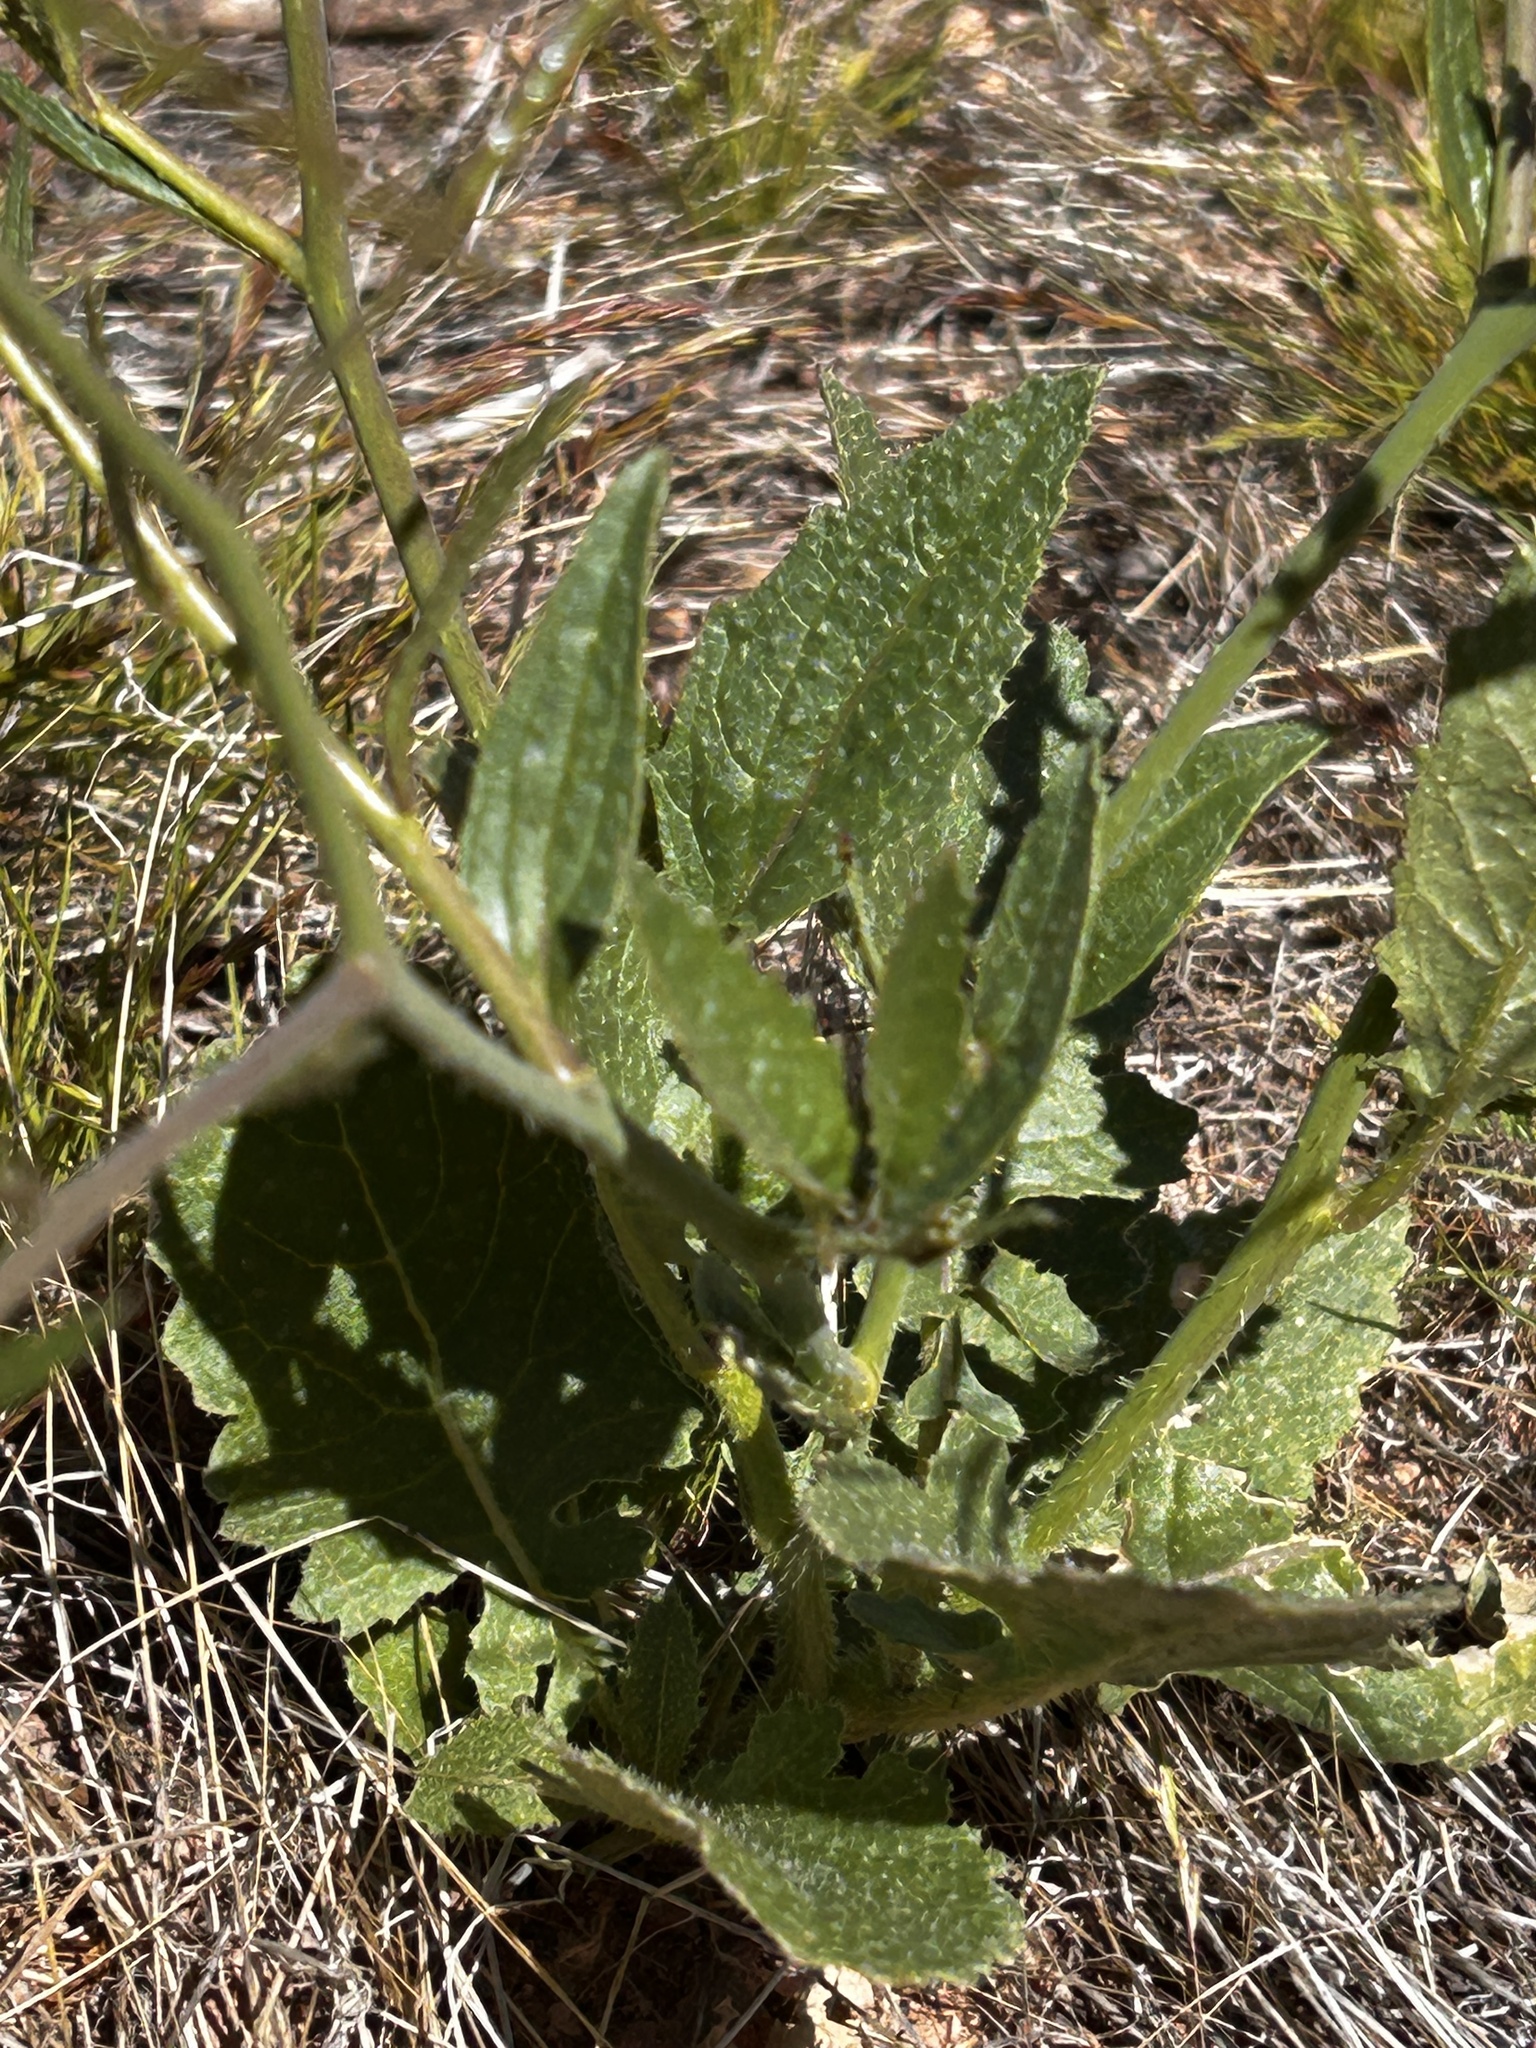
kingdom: Plantae
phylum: Tracheophyta
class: Magnoliopsida
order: Brassicales
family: Brassicaceae
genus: Brassica
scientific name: Brassica tournefortii
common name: Pale cabbage
